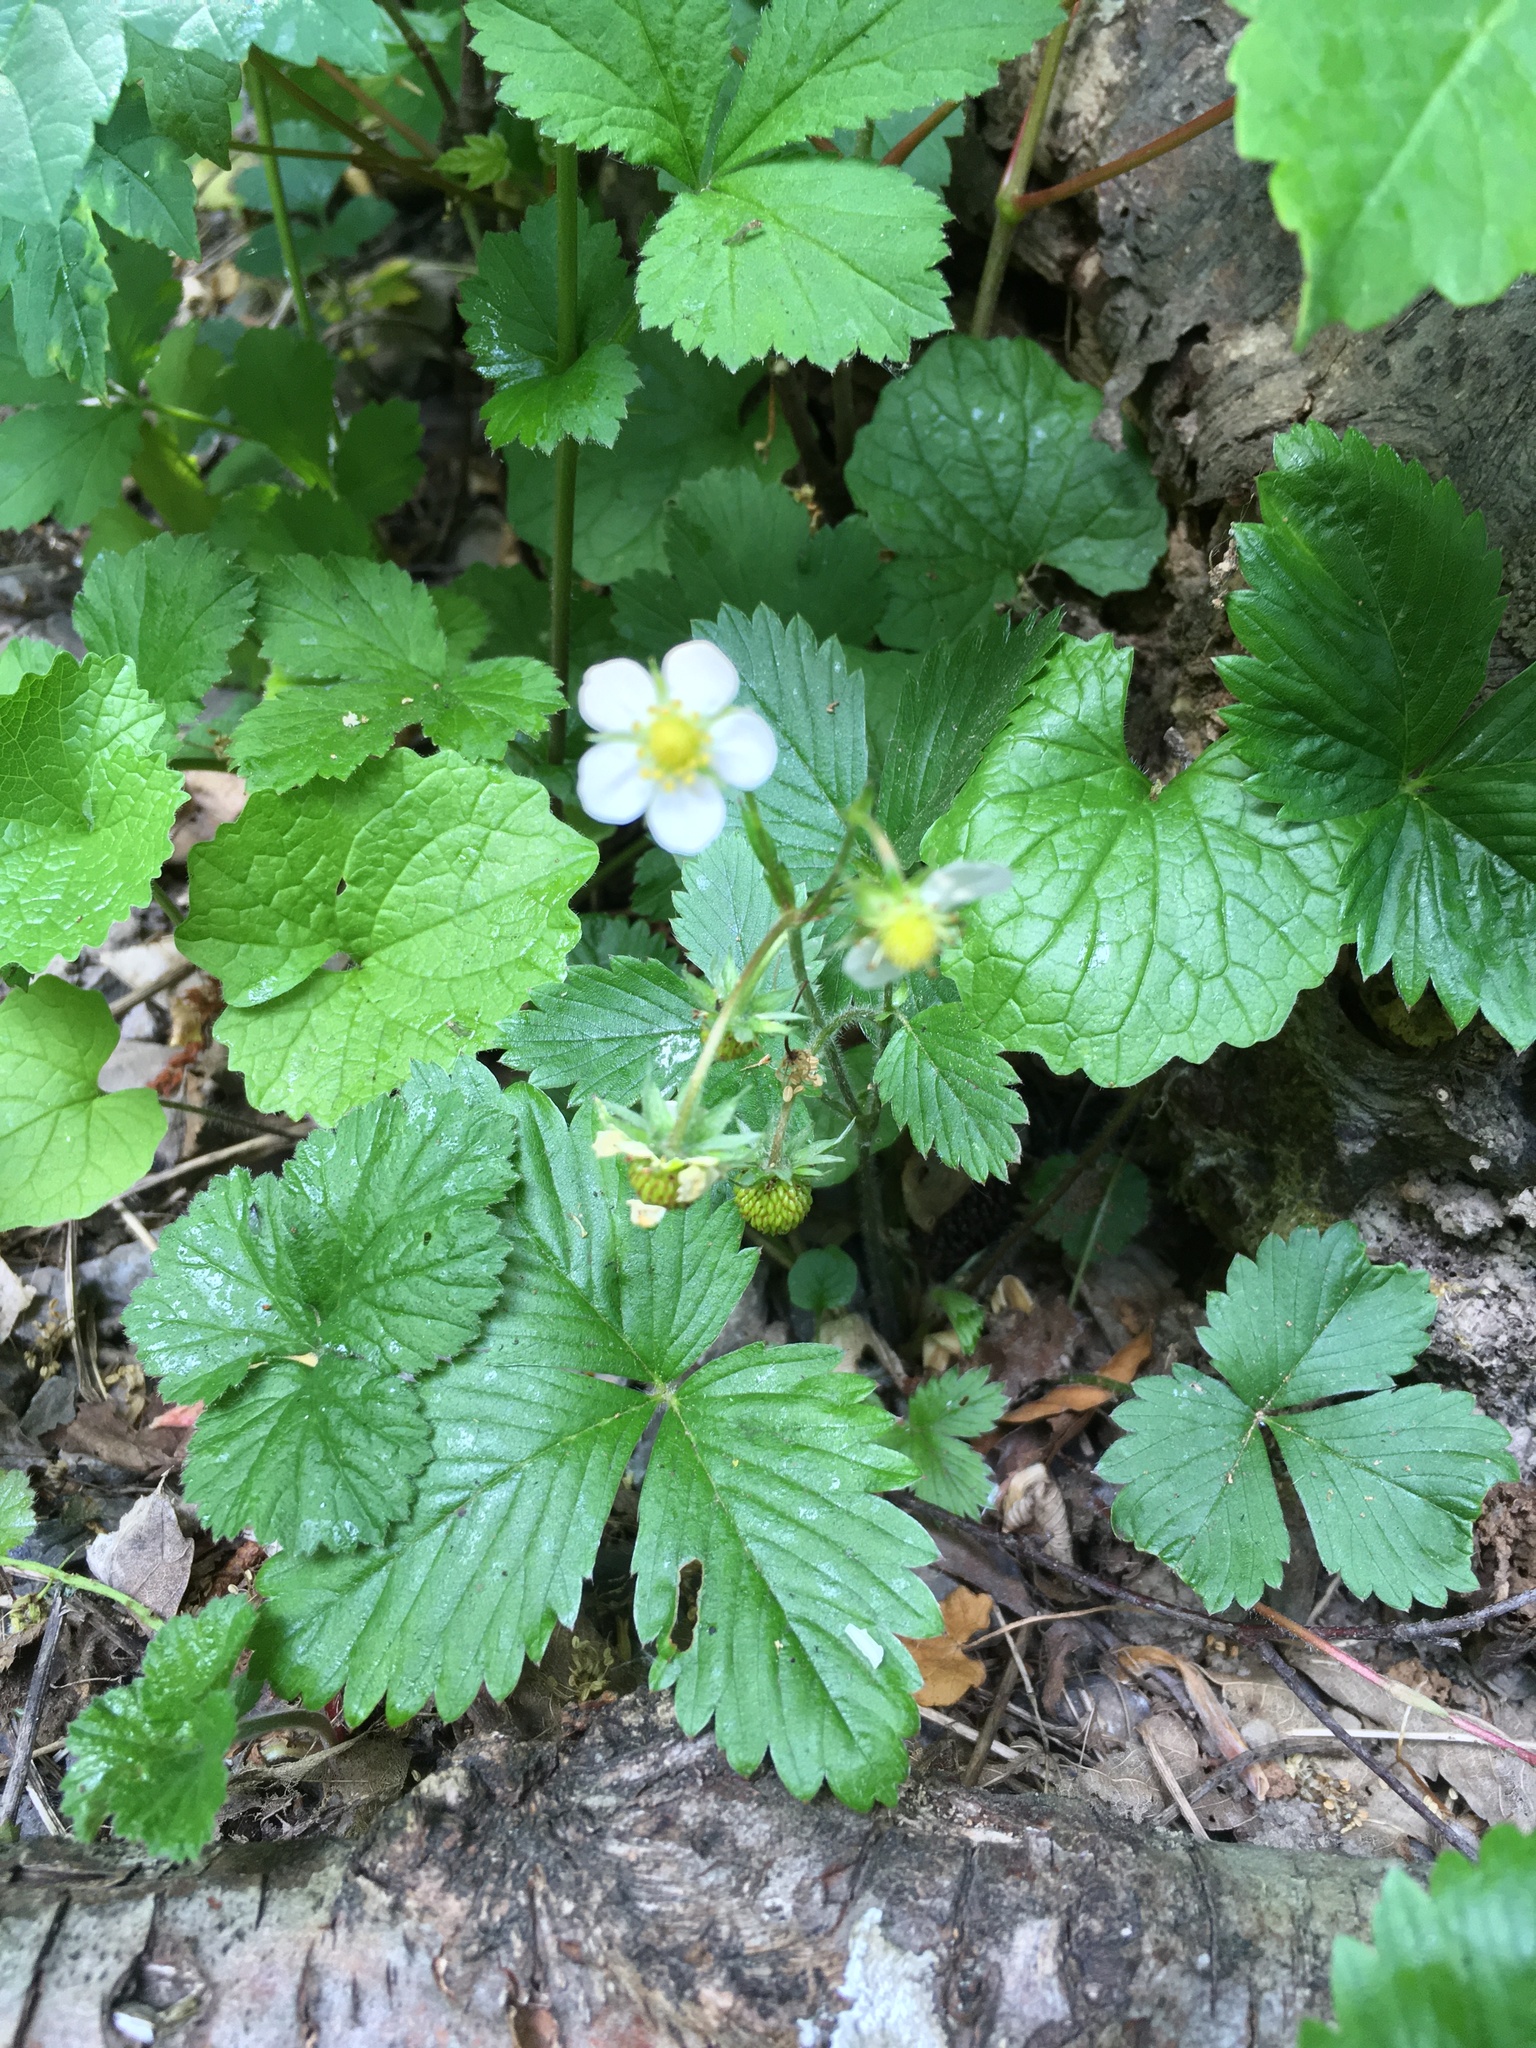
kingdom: Plantae
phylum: Tracheophyta
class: Magnoliopsida
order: Rosales
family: Rosaceae
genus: Fragaria
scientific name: Fragaria vesca
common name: Wild strawberry
